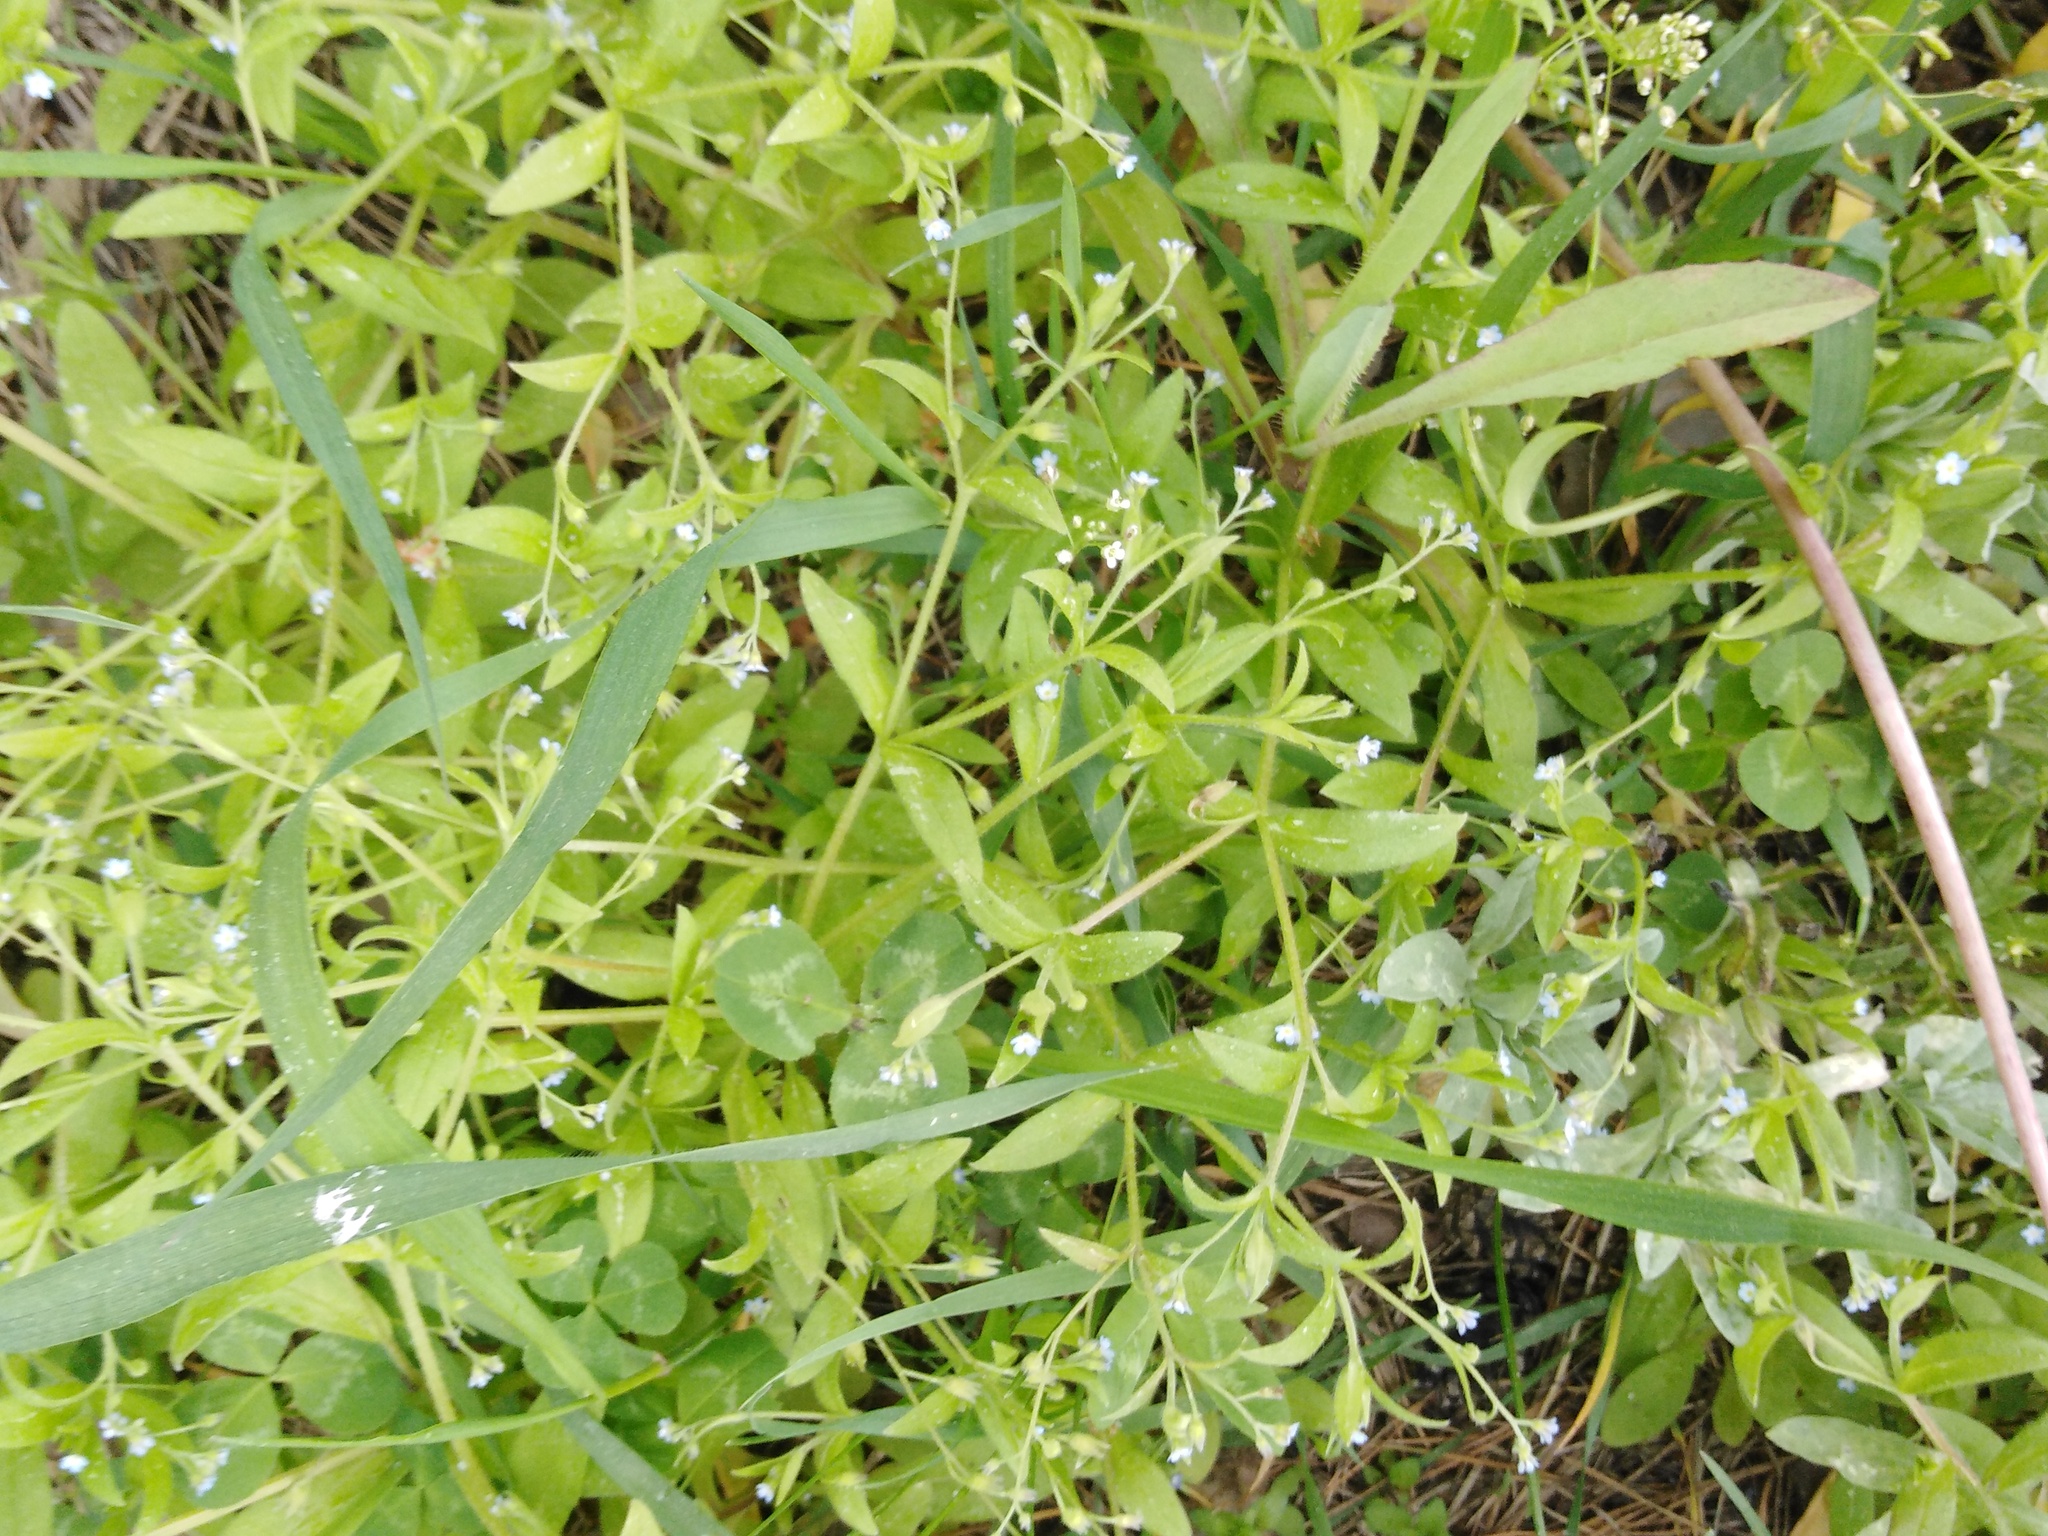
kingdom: Plantae
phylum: Tracheophyta
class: Magnoliopsida
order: Boraginales
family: Boraginaceae
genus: Myosotis
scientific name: Myosotis sparsiflora
